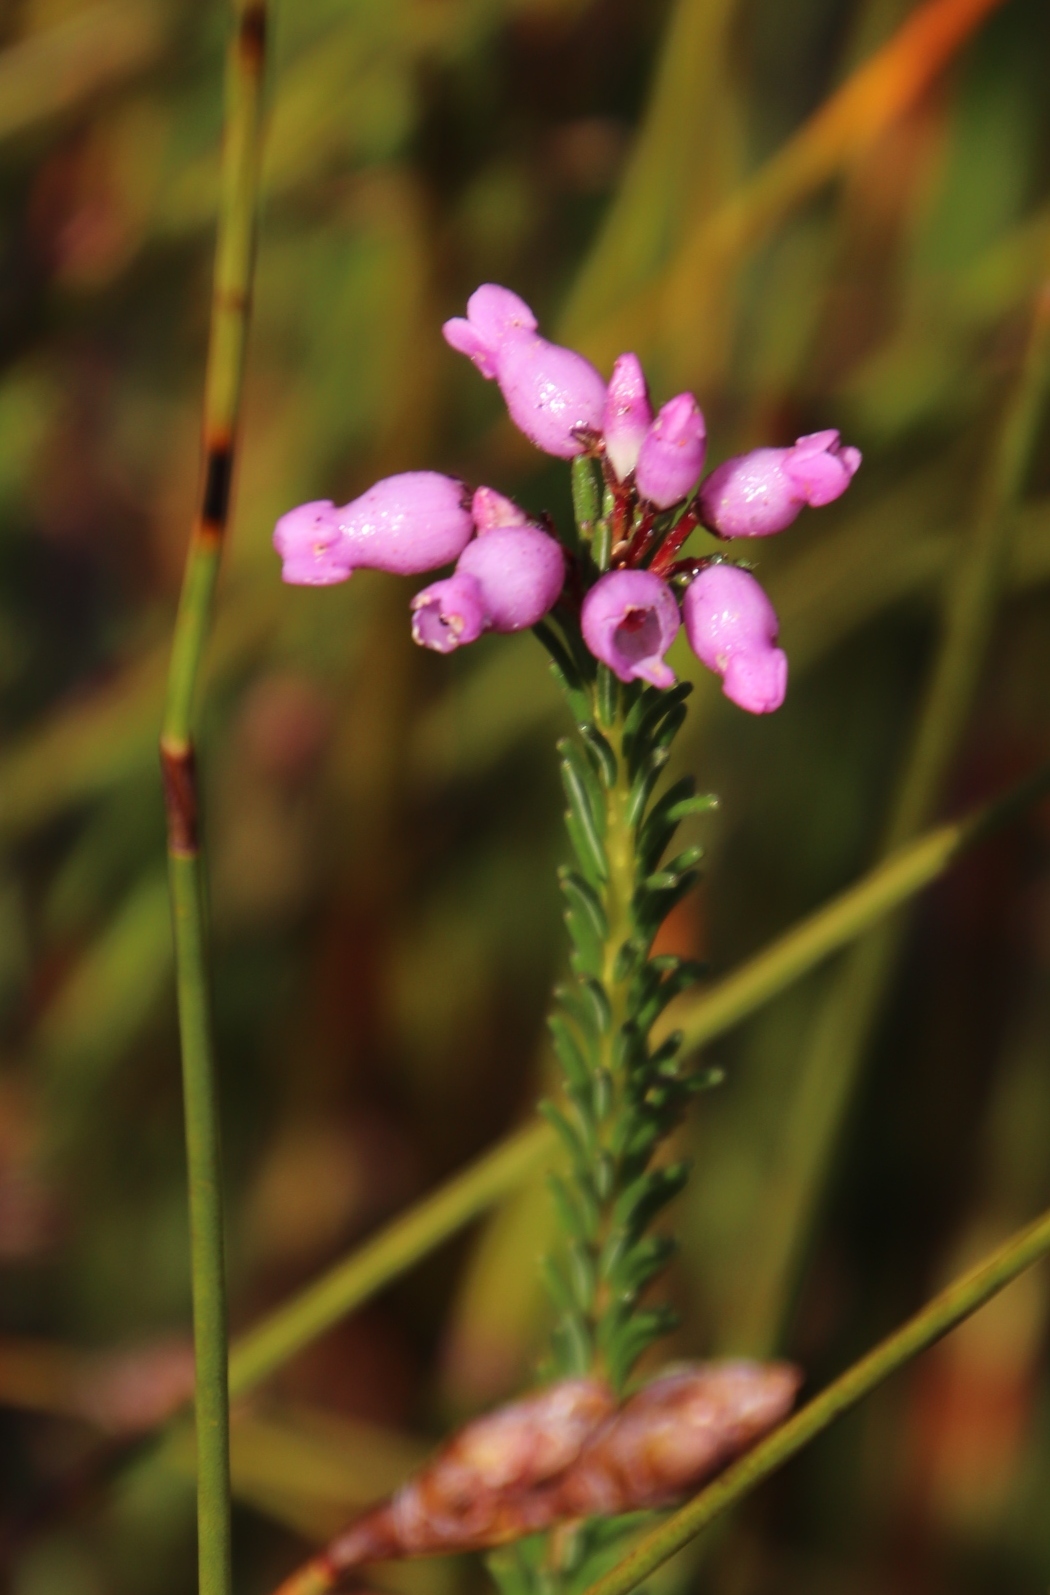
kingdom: Plantae
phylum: Tracheophyta
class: Magnoliopsida
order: Ericales
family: Ericaceae
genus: Erica
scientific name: Erica obliqua
